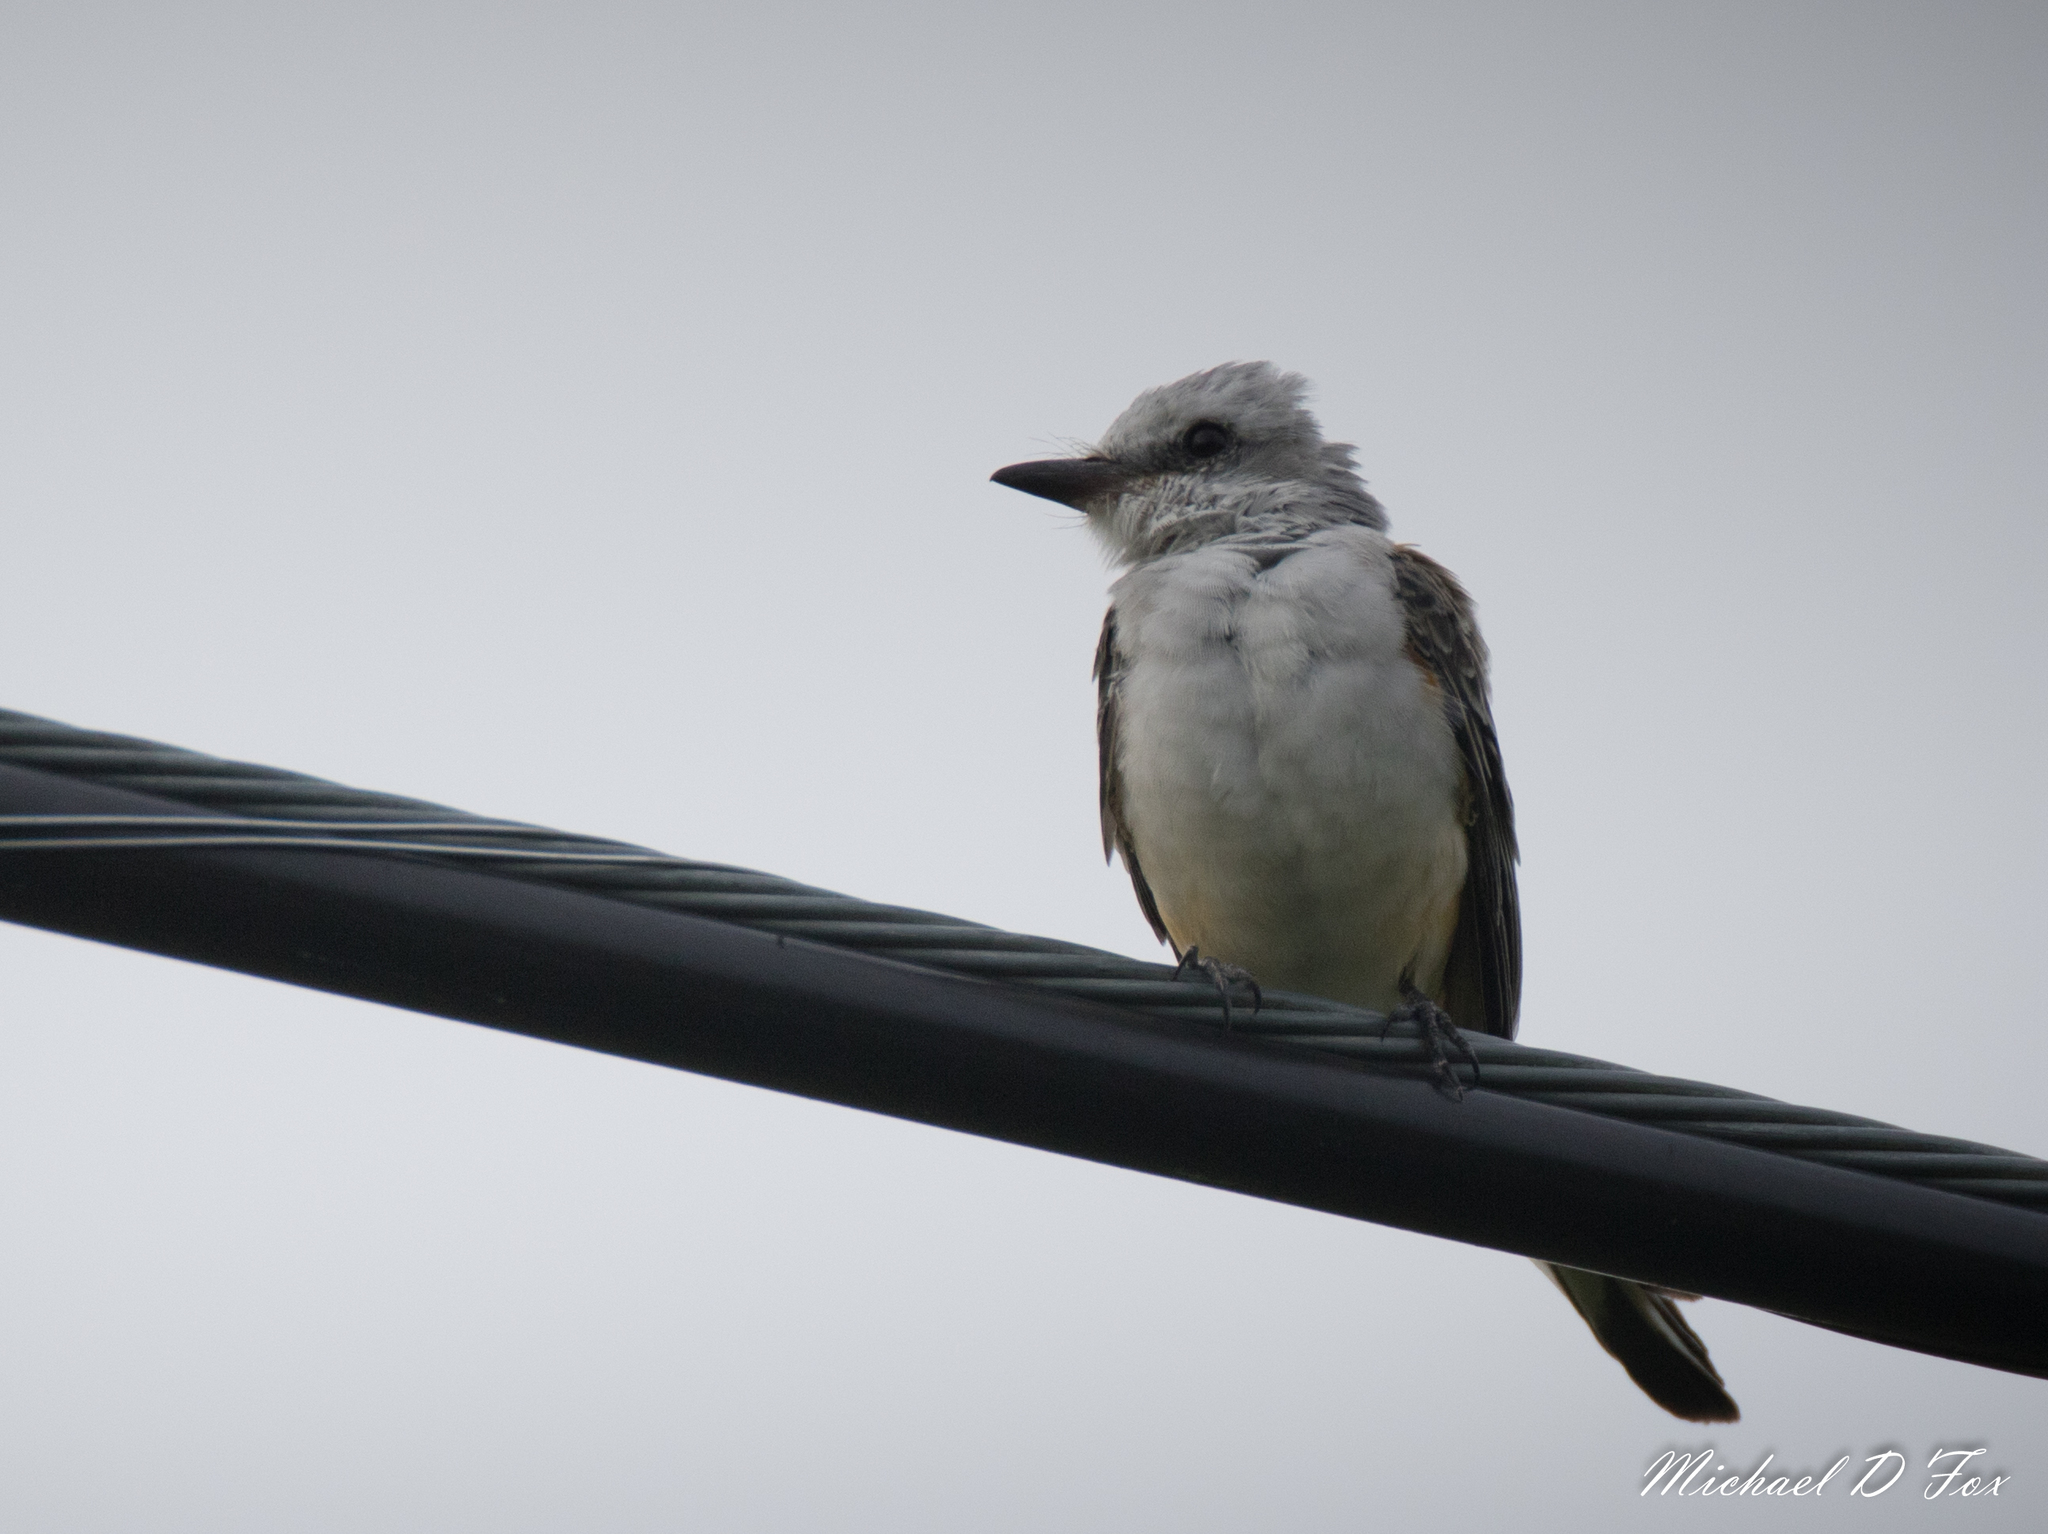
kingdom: Animalia
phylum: Chordata
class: Aves
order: Passeriformes
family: Tyrannidae
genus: Tyrannus
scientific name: Tyrannus forficatus
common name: Scissor-tailed flycatcher
